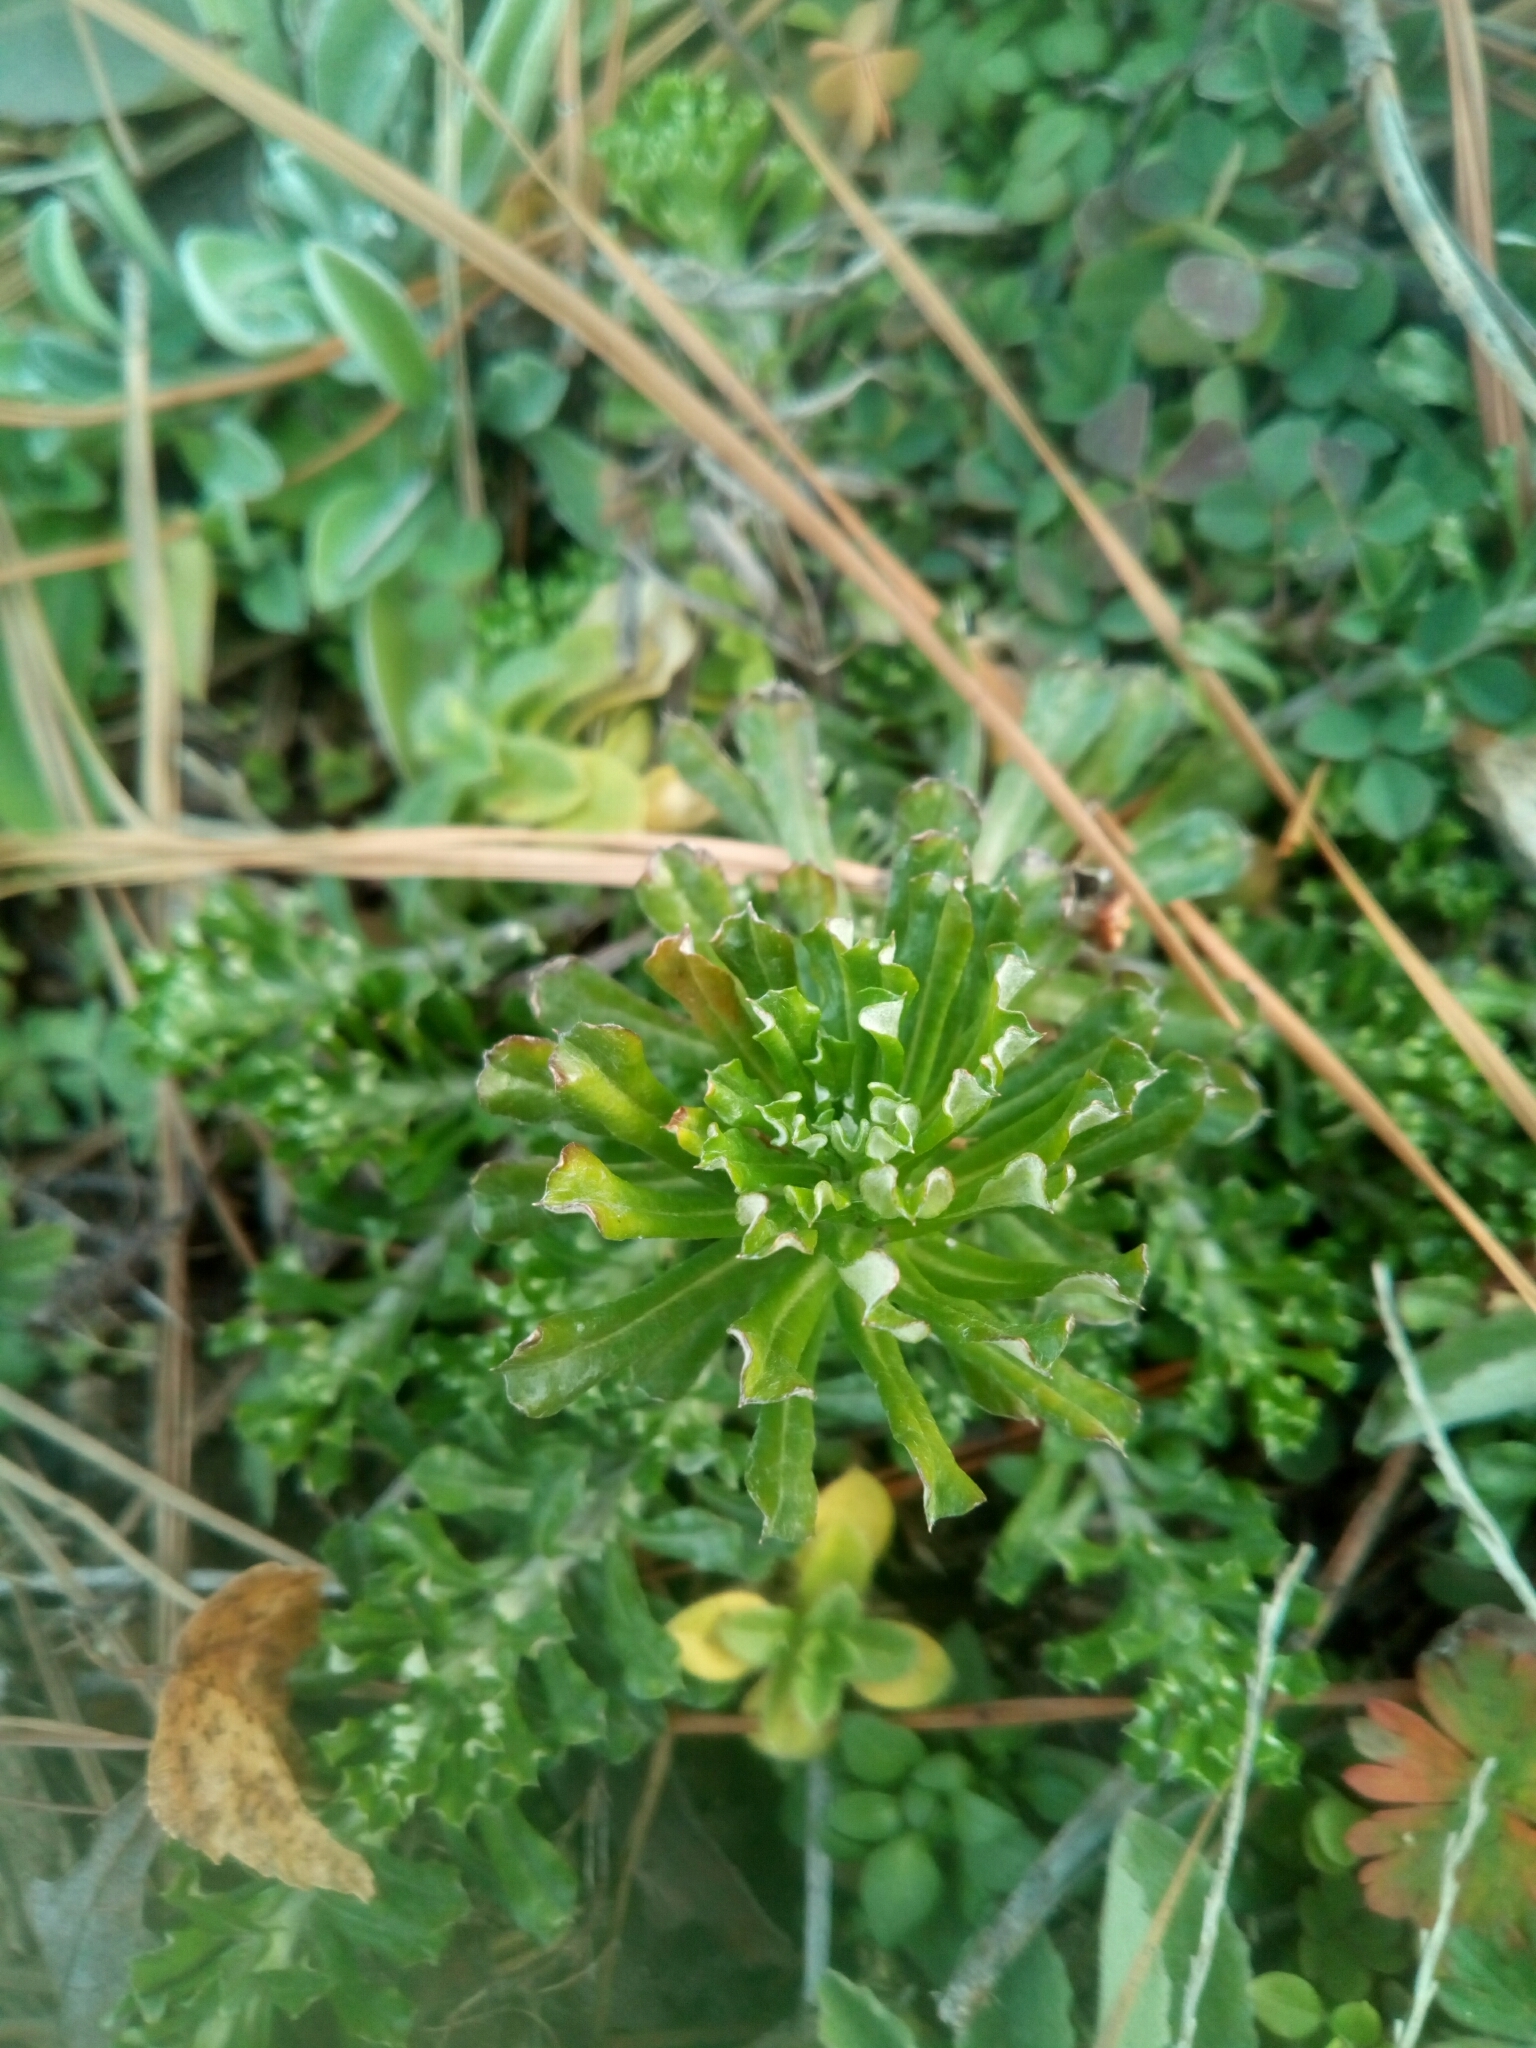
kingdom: Plantae
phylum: Tracheophyta
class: Magnoliopsida
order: Asterales
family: Asteraceae
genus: Facelis
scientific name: Facelis retusa
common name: Annual trampweed
